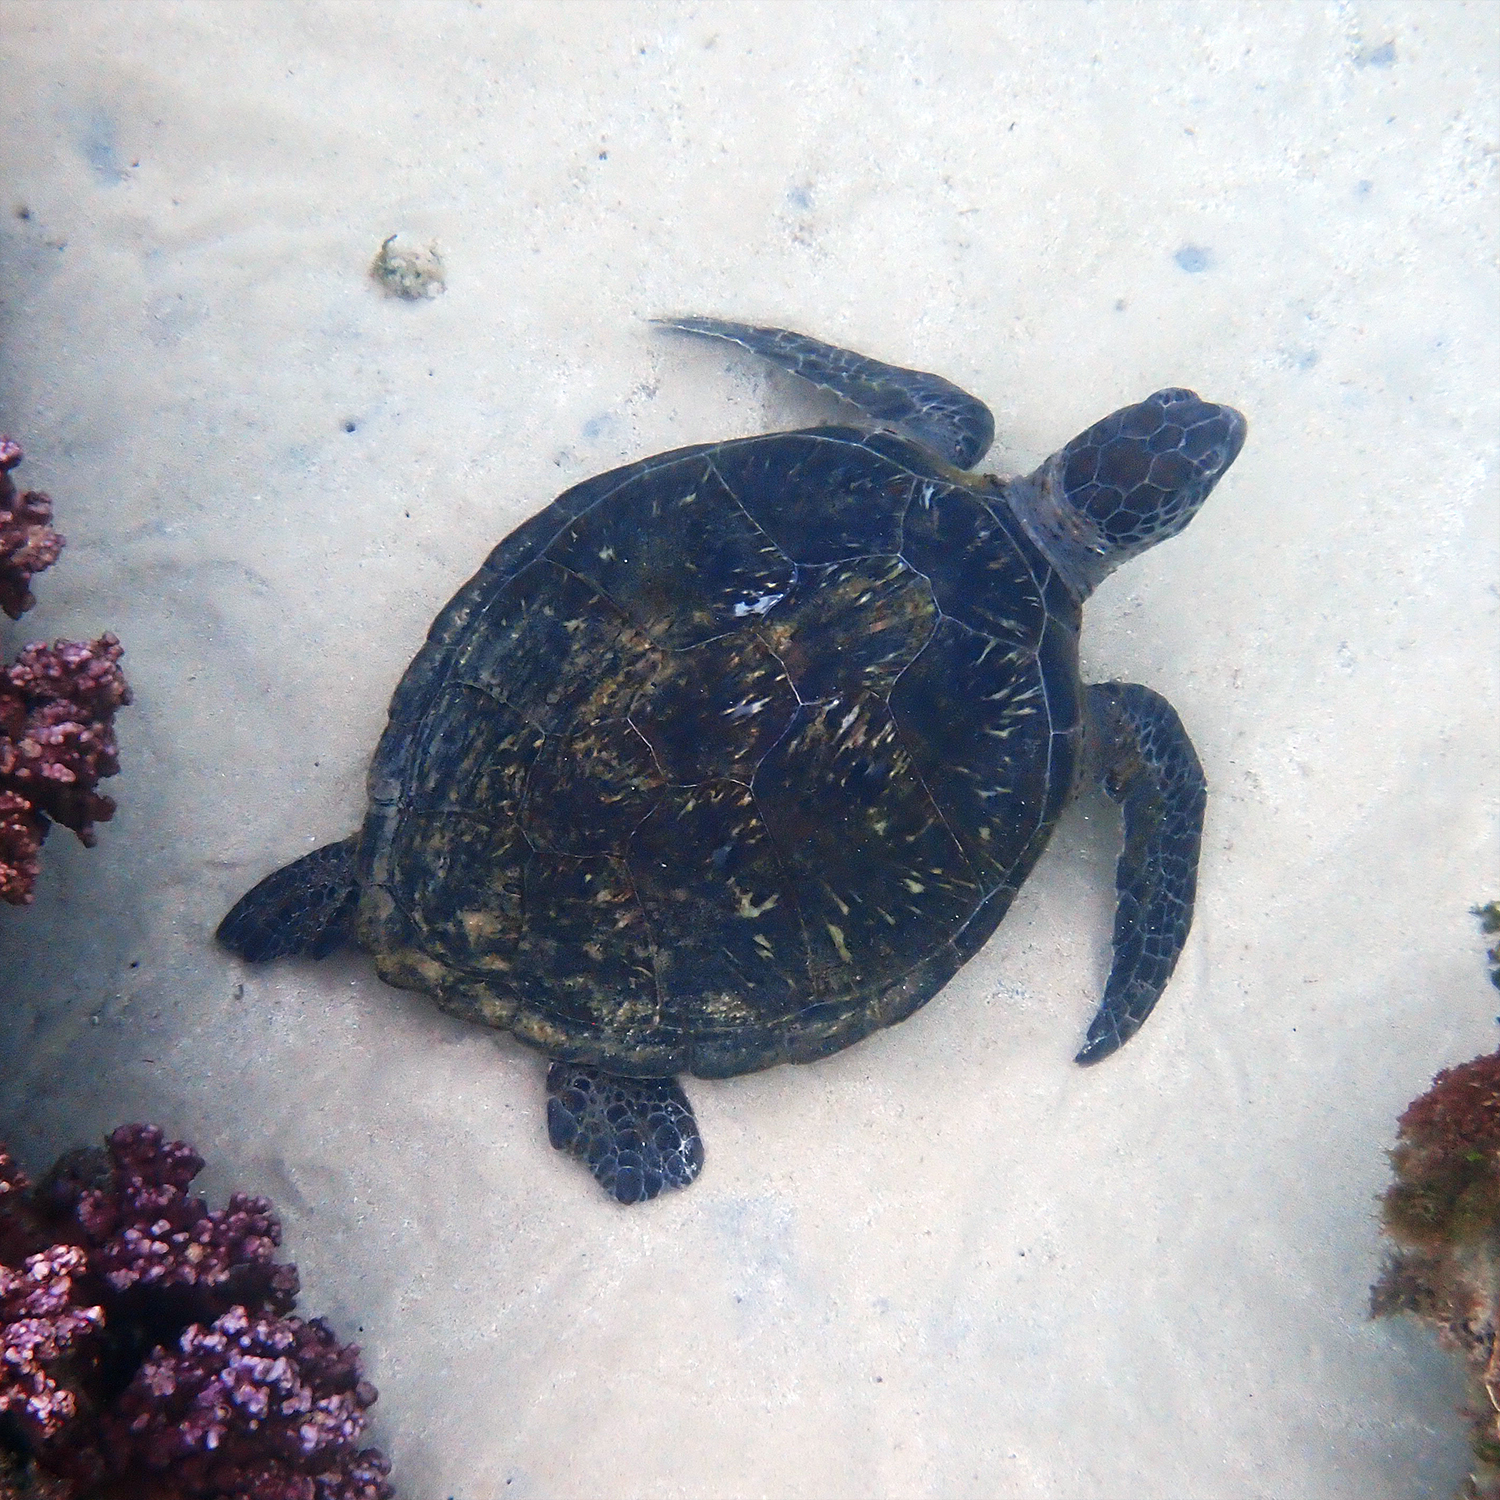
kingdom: Animalia
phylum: Chordata
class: Testudines
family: Cheloniidae
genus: Chelonia
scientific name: Chelonia mydas
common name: Green turtle
